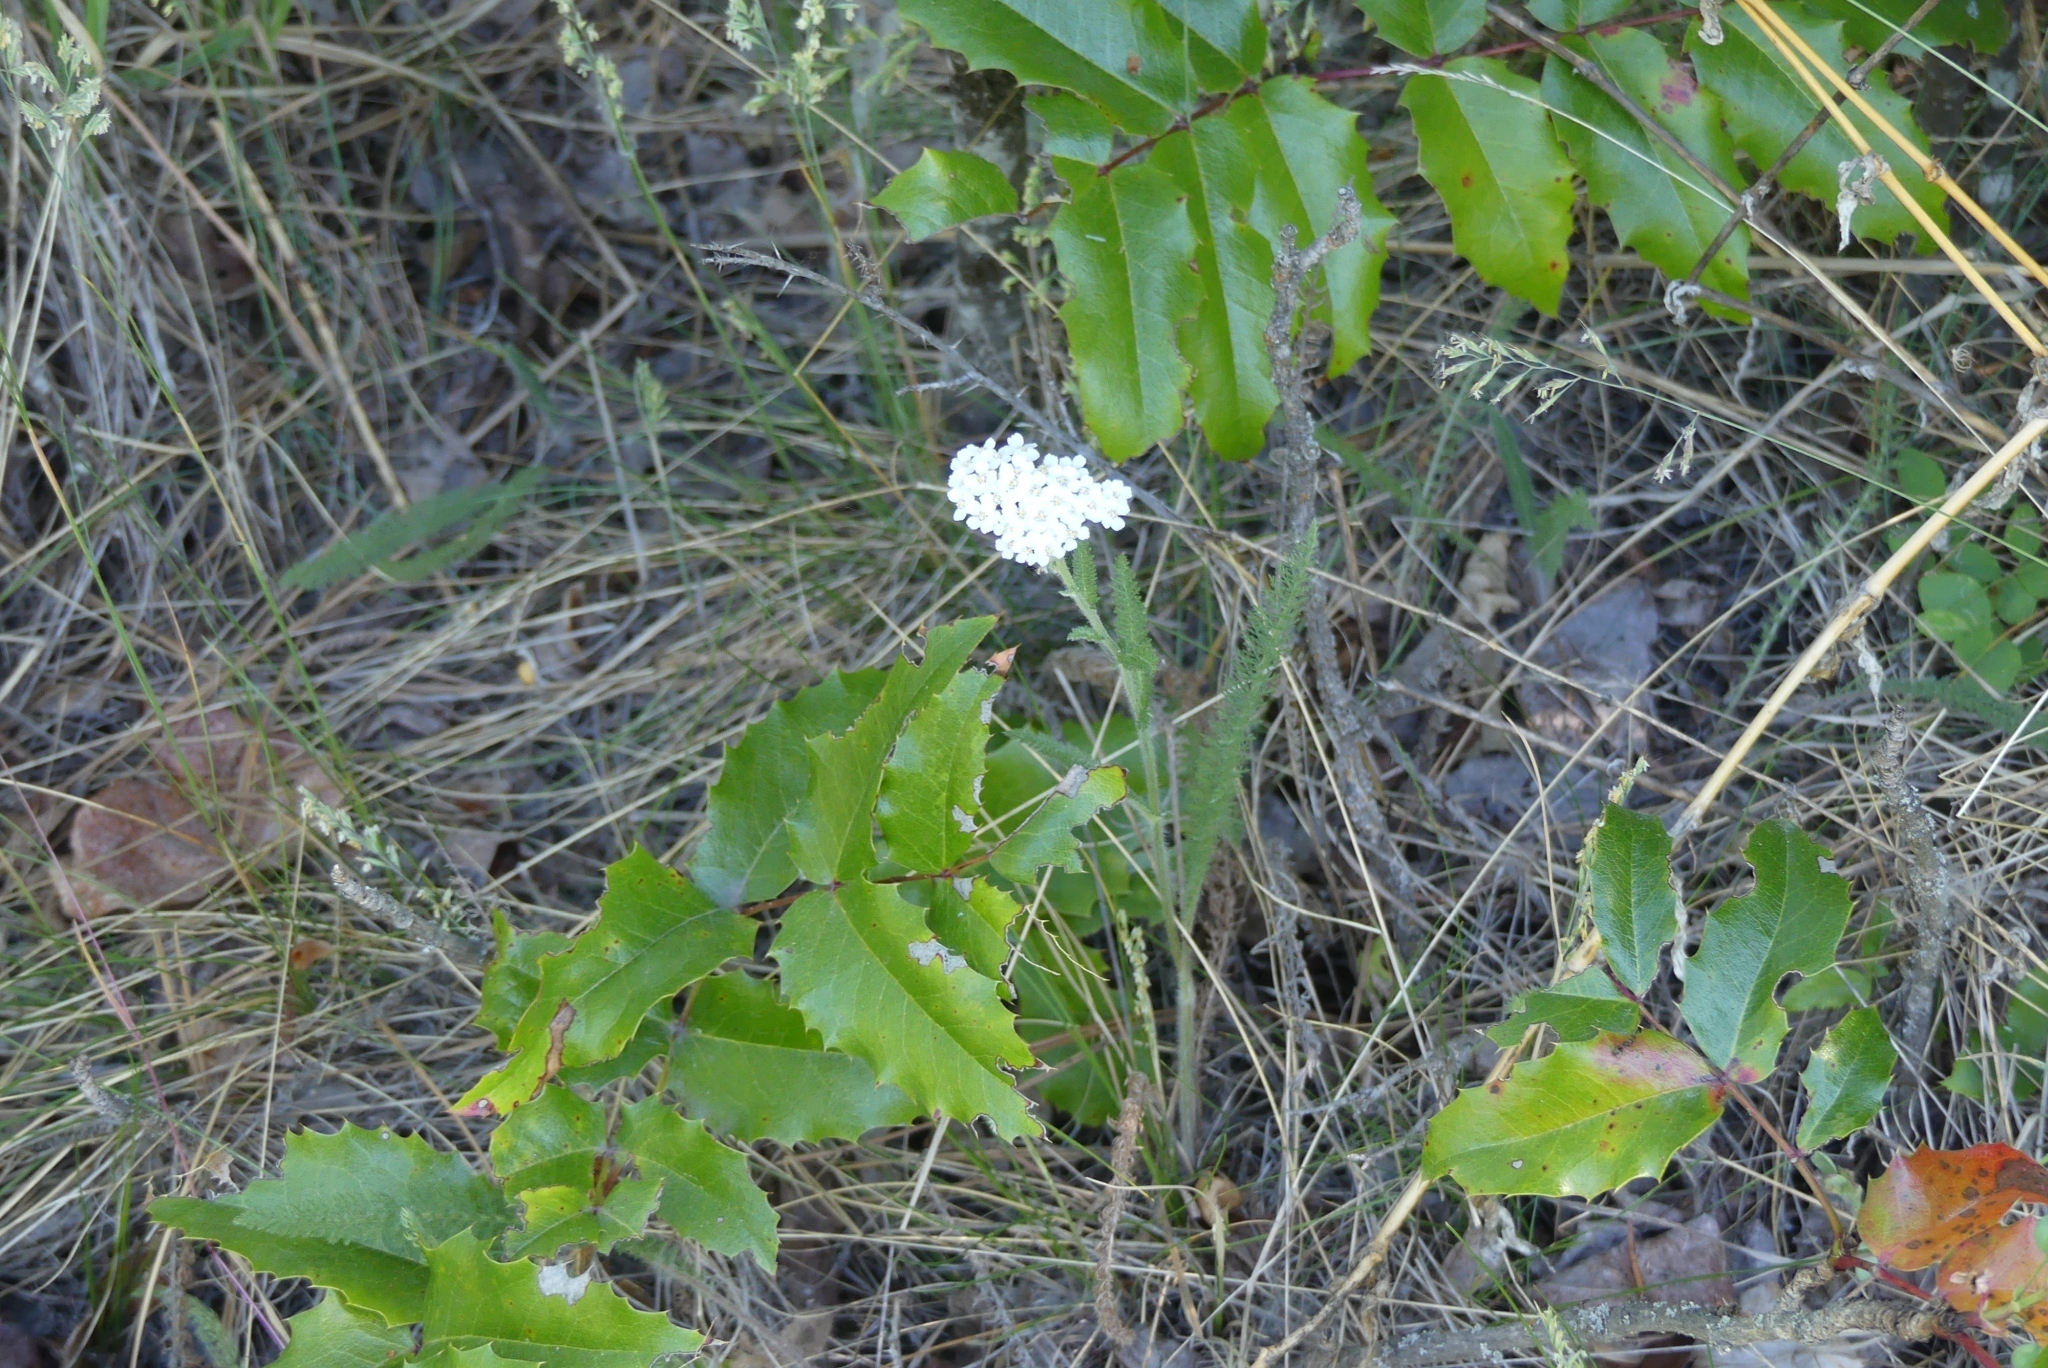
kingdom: Plantae
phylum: Tracheophyta
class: Magnoliopsida
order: Asterales
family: Asteraceae
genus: Achillea
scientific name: Achillea millefolium
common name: Yarrow
